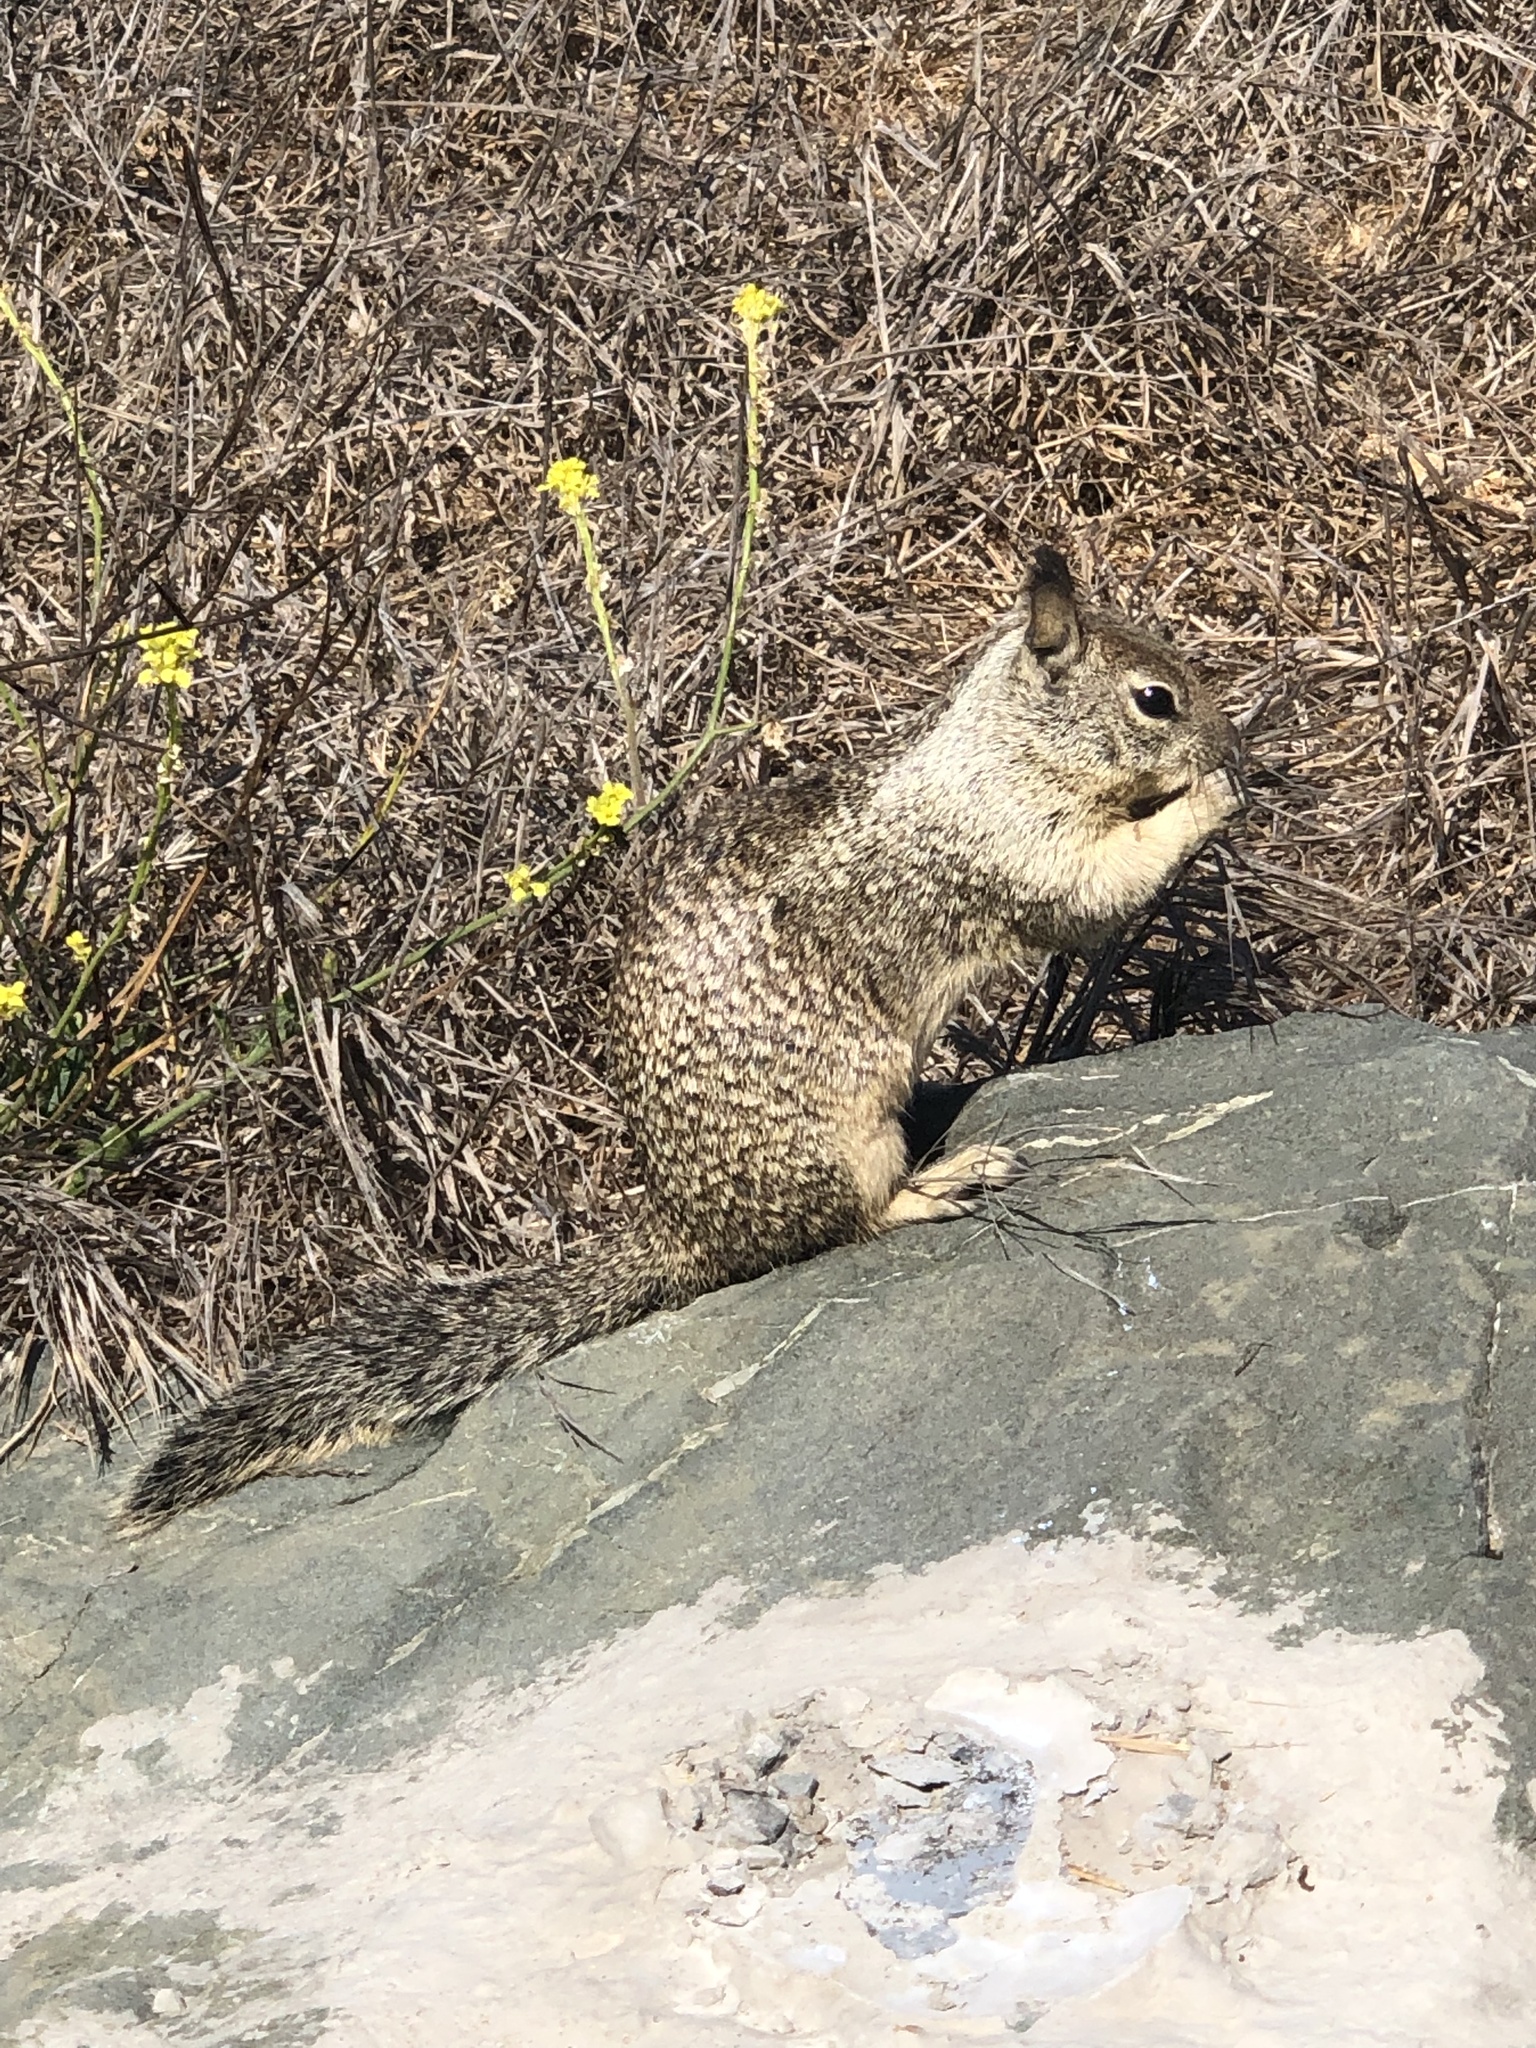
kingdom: Animalia
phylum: Chordata
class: Mammalia
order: Rodentia
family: Sciuridae
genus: Otospermophilus
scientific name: Otospermophilus beecheyi
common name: California ground squirrel
